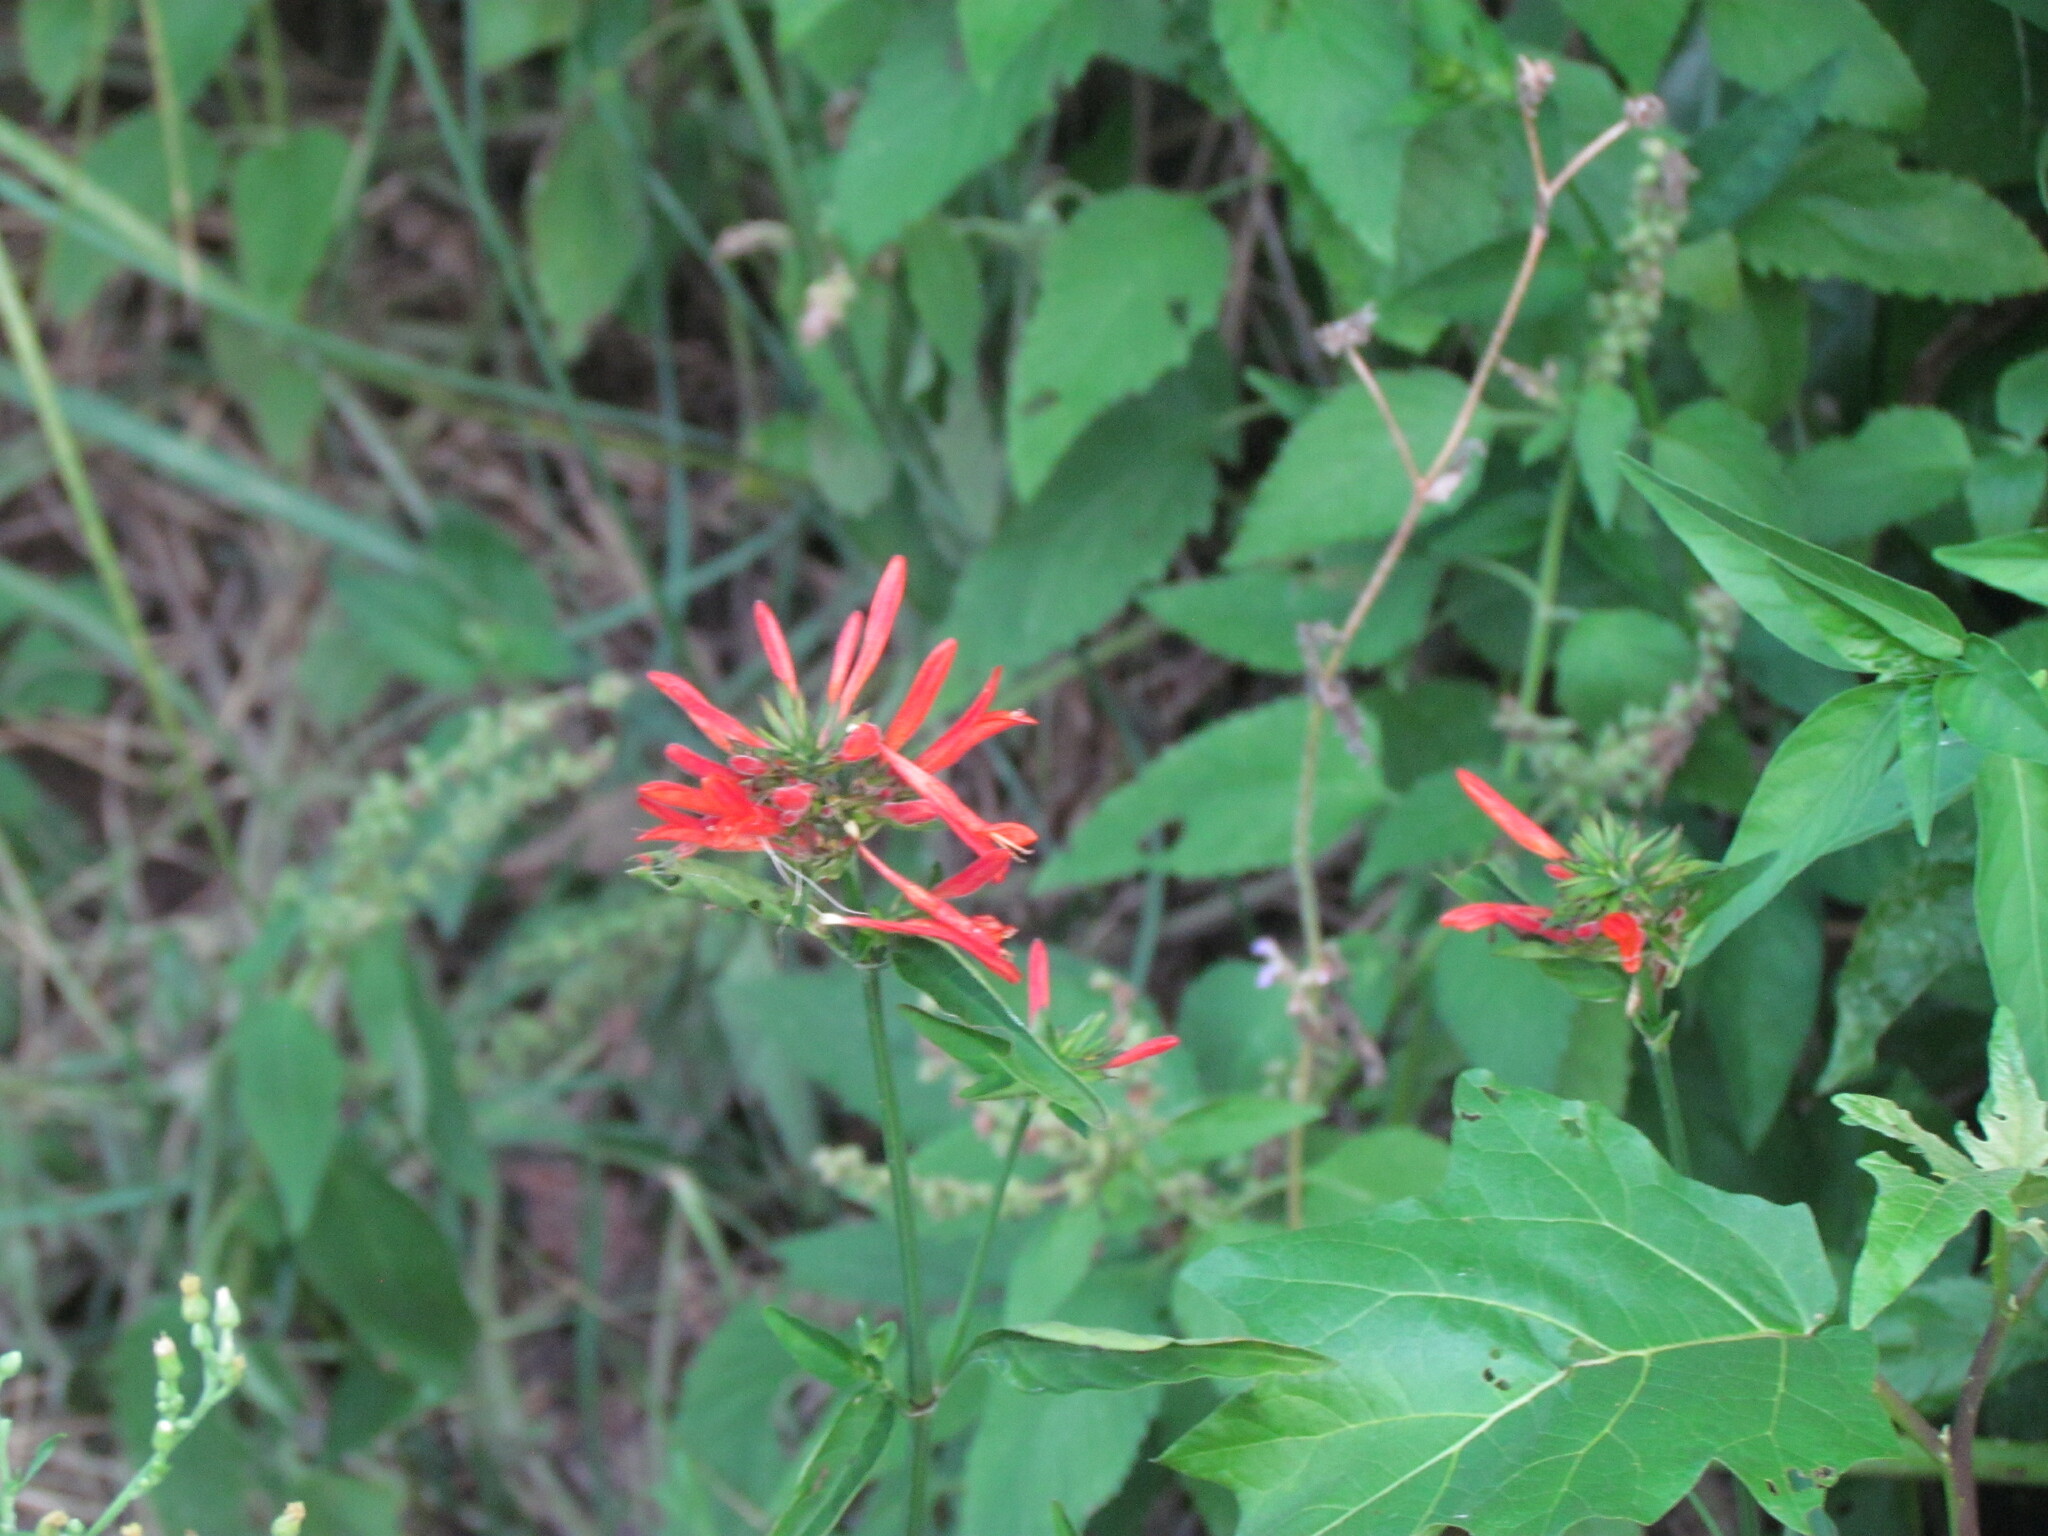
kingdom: Plantae
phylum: Tracheophyta
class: Magnoliopsida
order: Lamiales
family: Acanthaceae
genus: Dicliptera
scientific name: Dicliptera squarrosa
